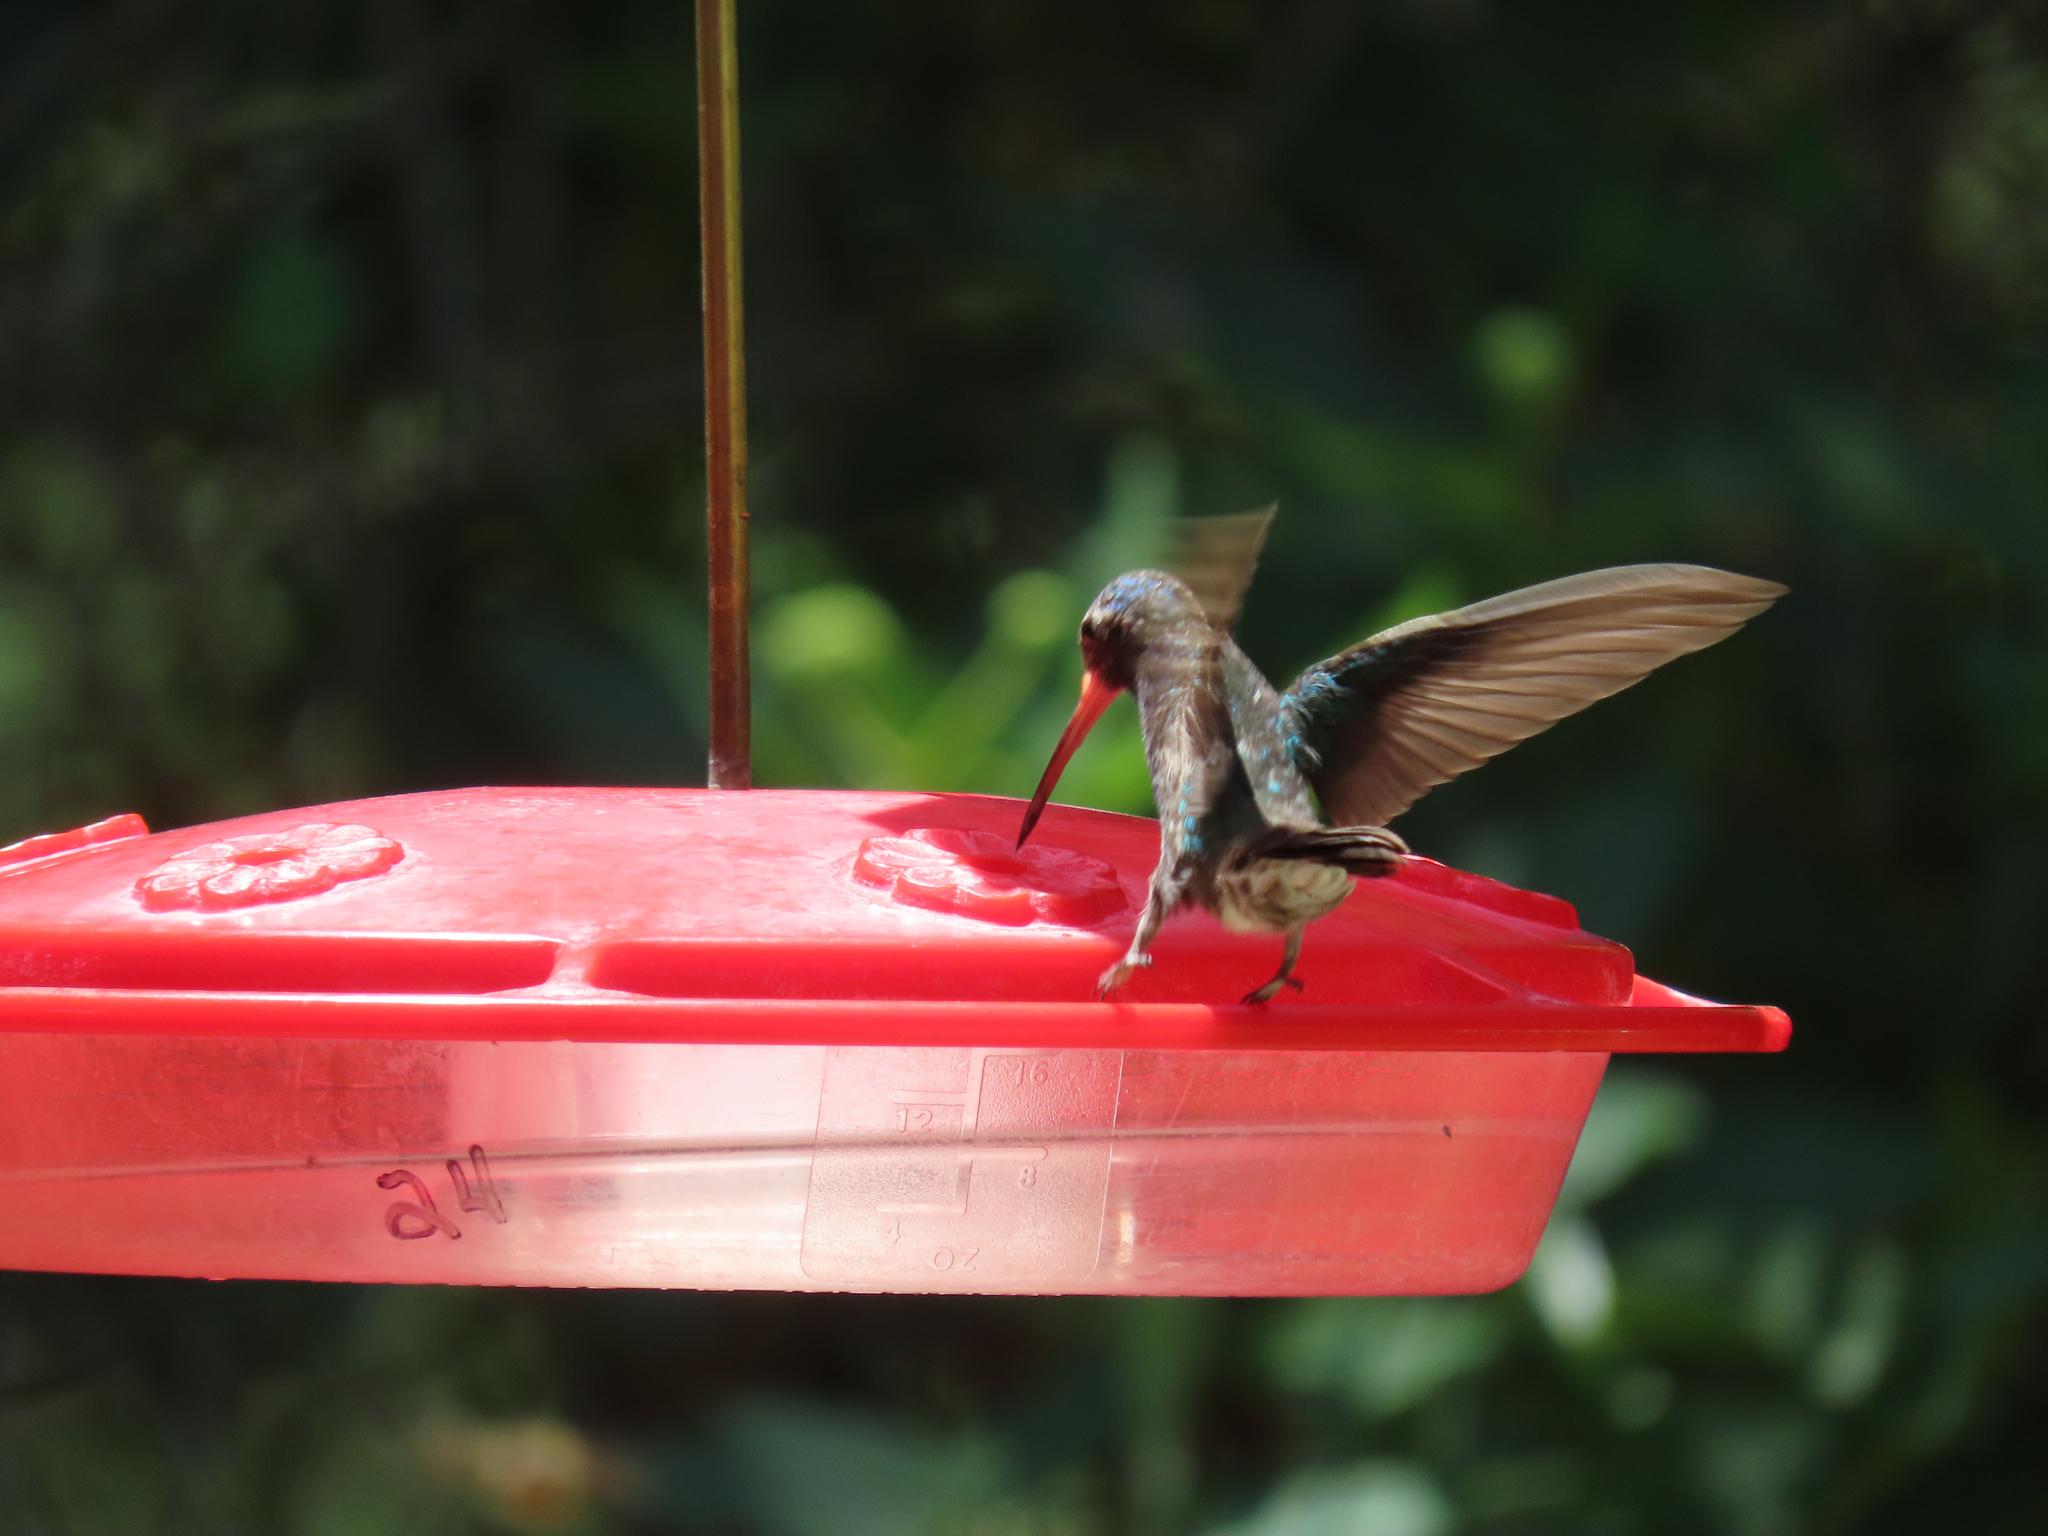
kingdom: Animalia
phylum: Chordata
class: Aves
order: Apodiformes
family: Trochilidae
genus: Cynanthus
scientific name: Cynanthus latirostris
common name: Broad-billed hummingbird
